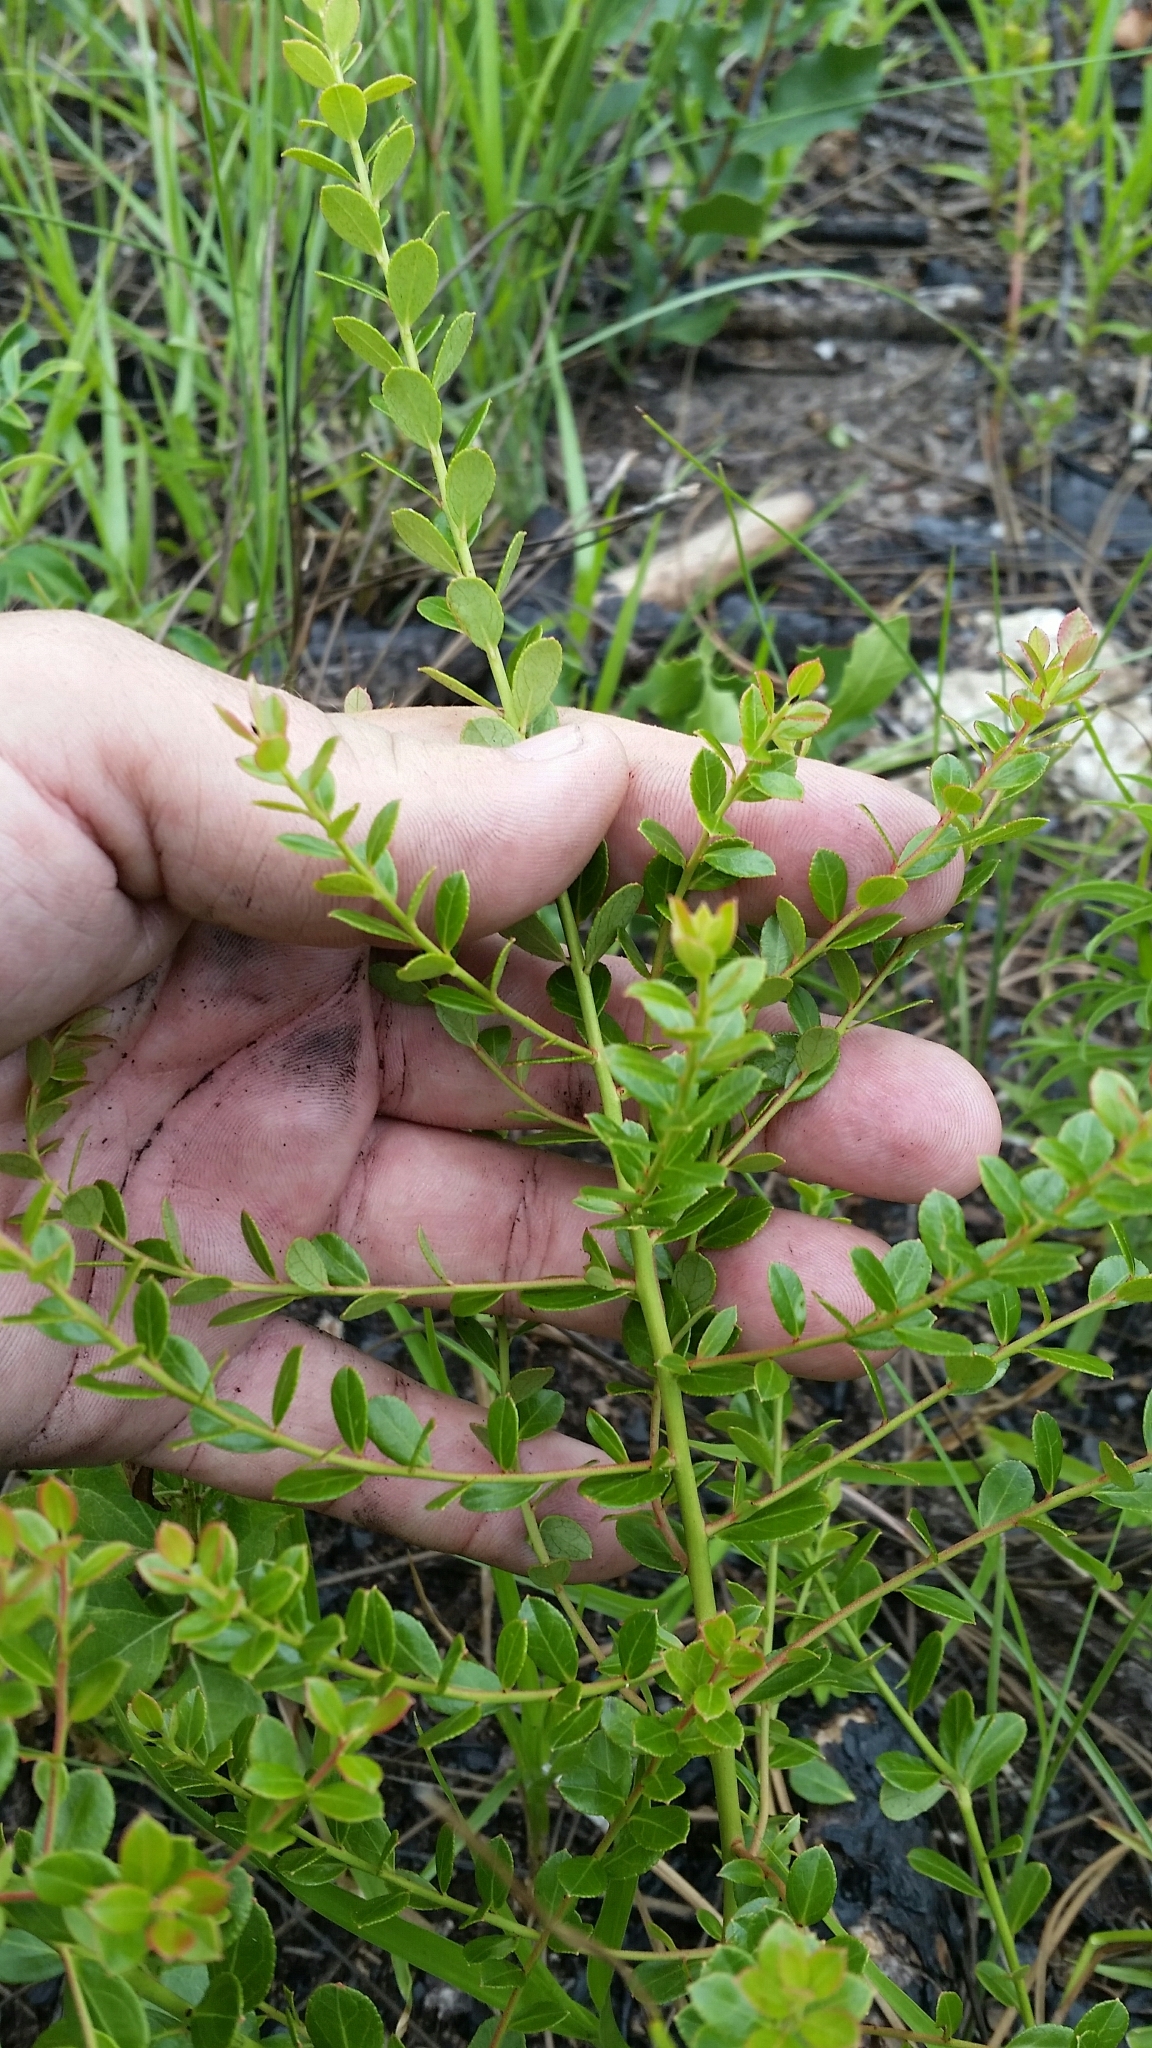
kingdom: Plantae
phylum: Tracheophyta
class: Magnoliopsida
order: Ericales
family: Ericaceae
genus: Vaccinium
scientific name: Vaccinium myrsinites
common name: Evergreen blueberry
